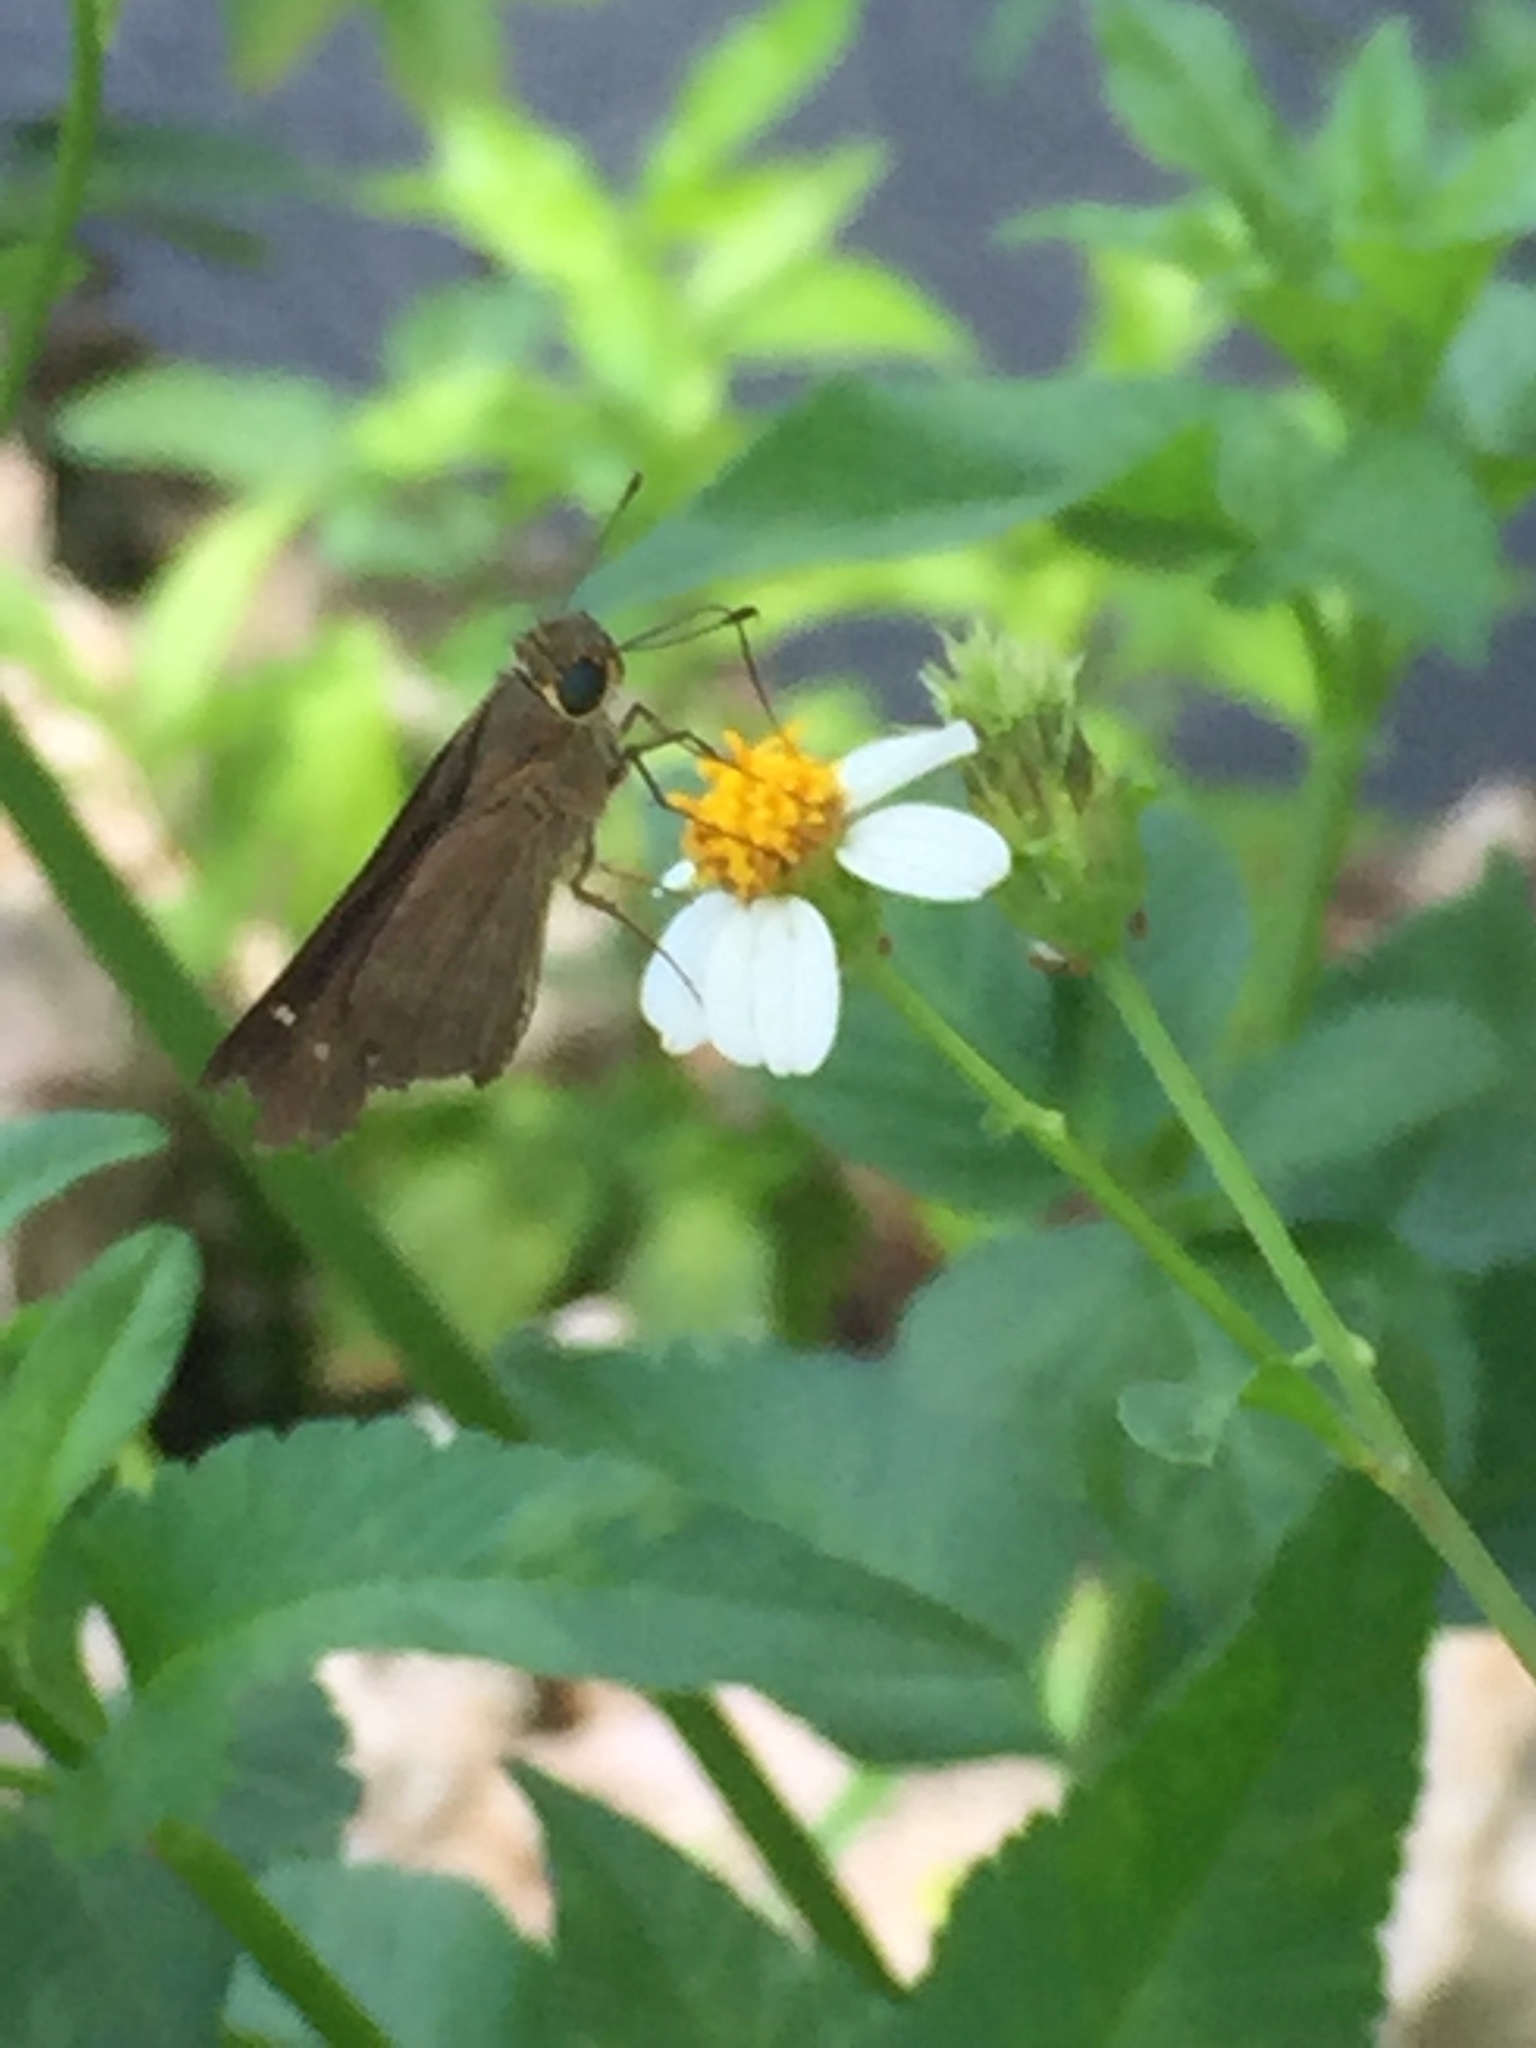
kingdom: Animalia
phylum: Arthropoda
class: Insecta
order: Lepidoptera
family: Hesperiidae
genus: Panoquina
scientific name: Panoquina ocola
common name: Ocola skipper
